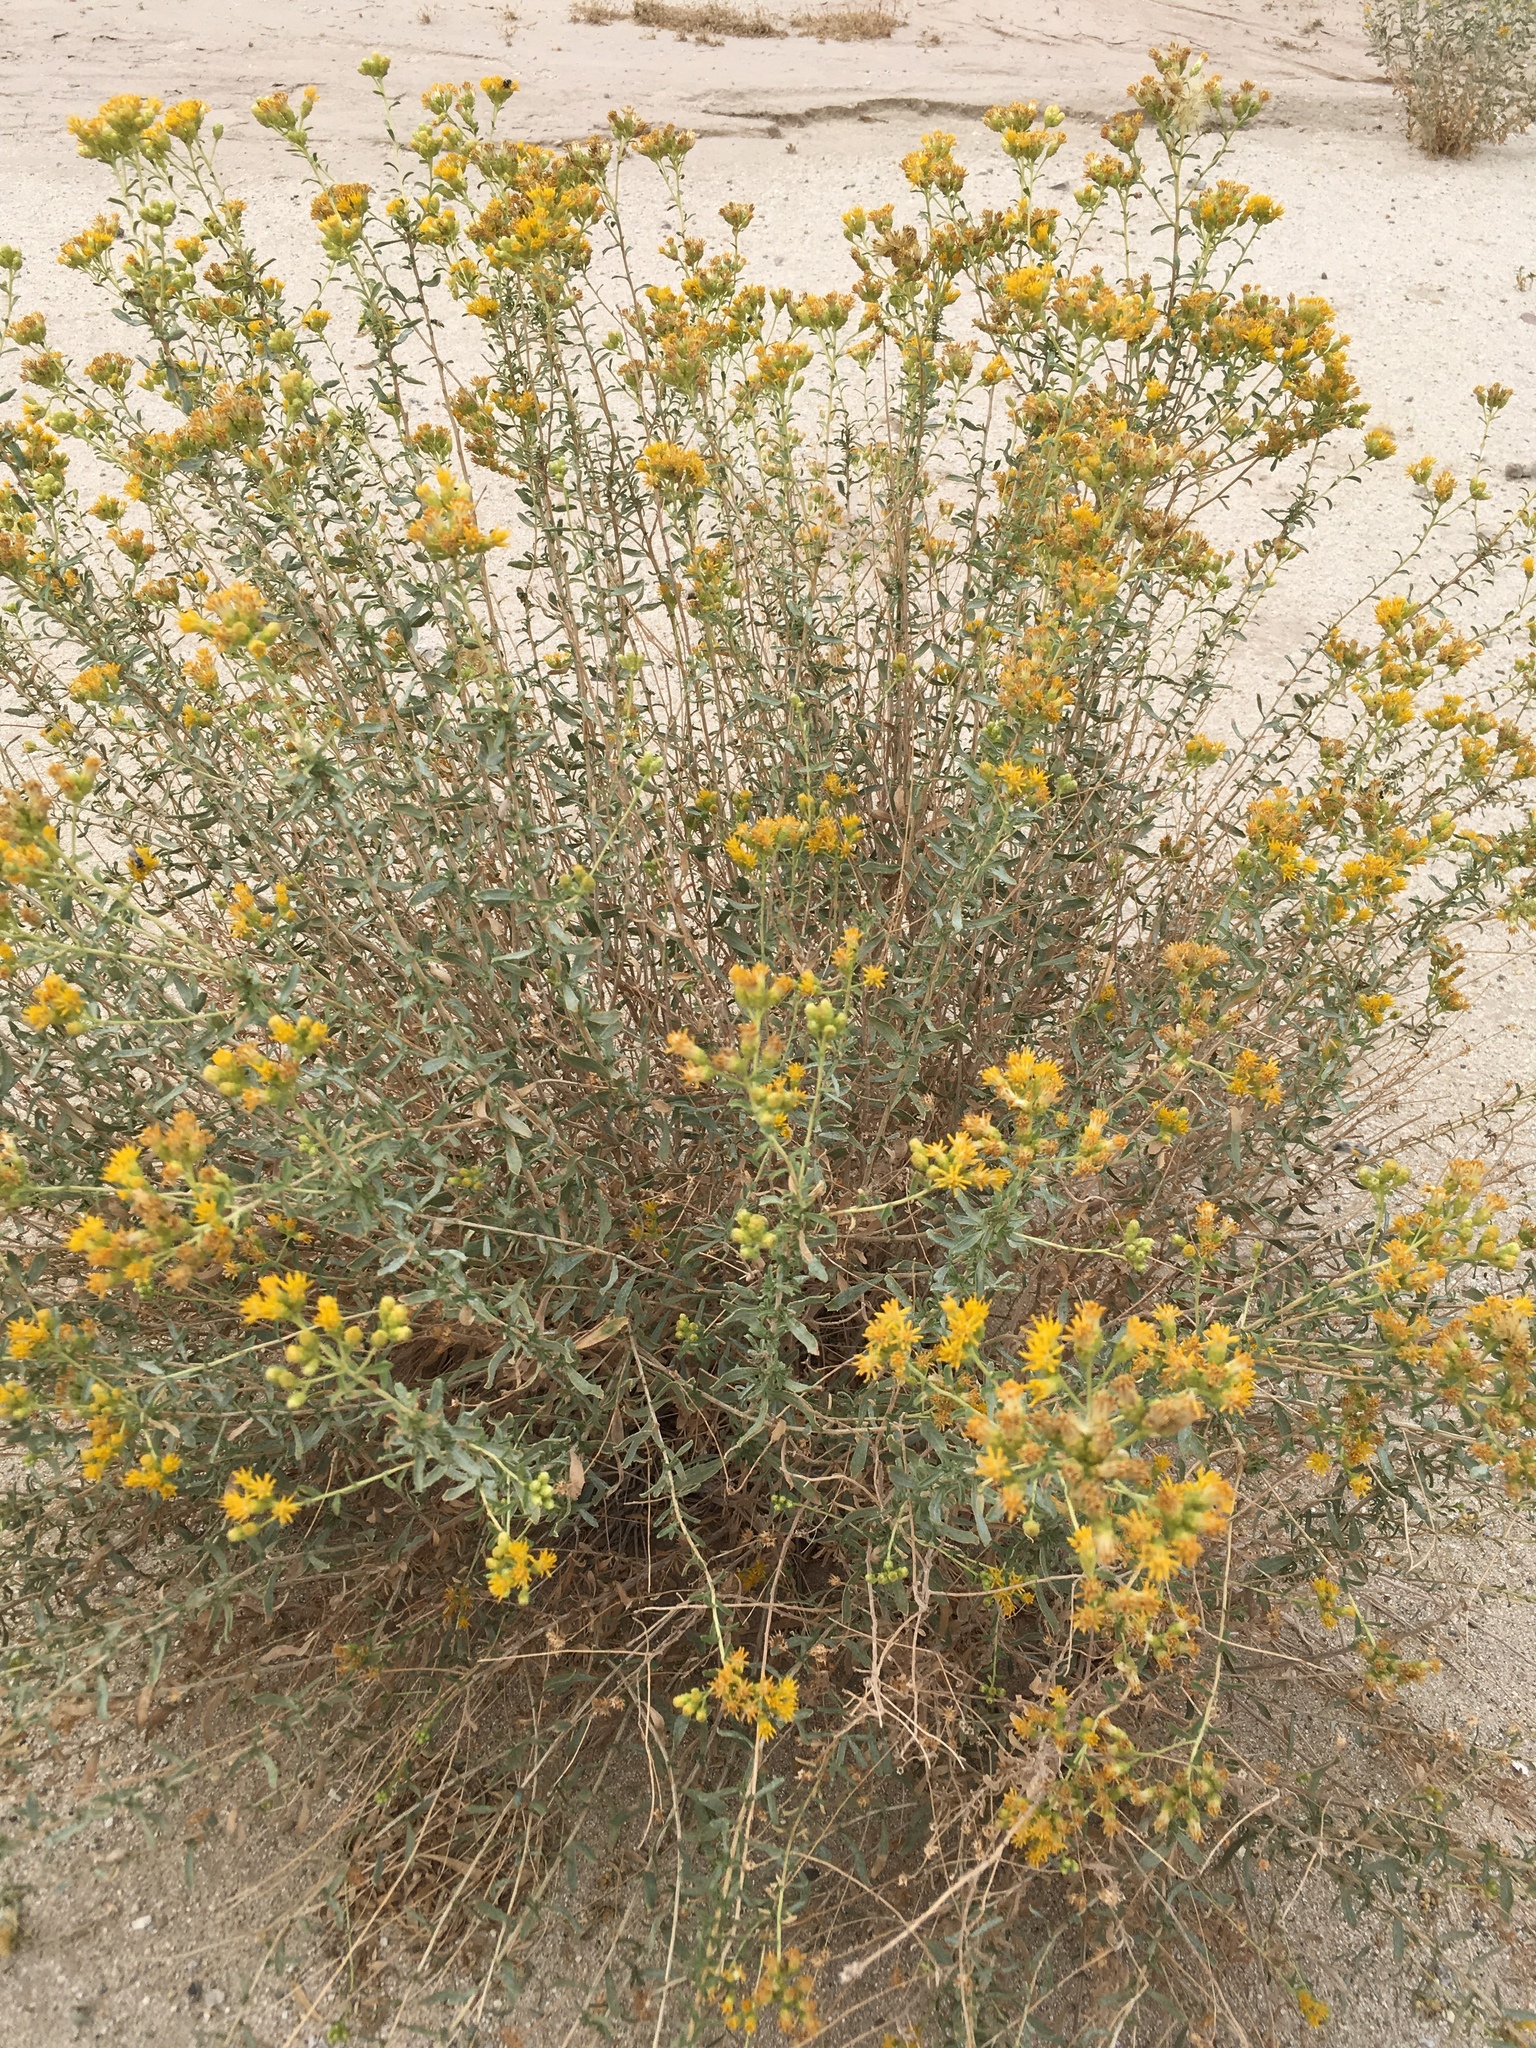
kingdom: Plantae
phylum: Tracheophyta
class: Magnoliopsida
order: Asterales
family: Asteraceae
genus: Isocoma
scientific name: Isocoma acradenia
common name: Alkali jimmyweed
